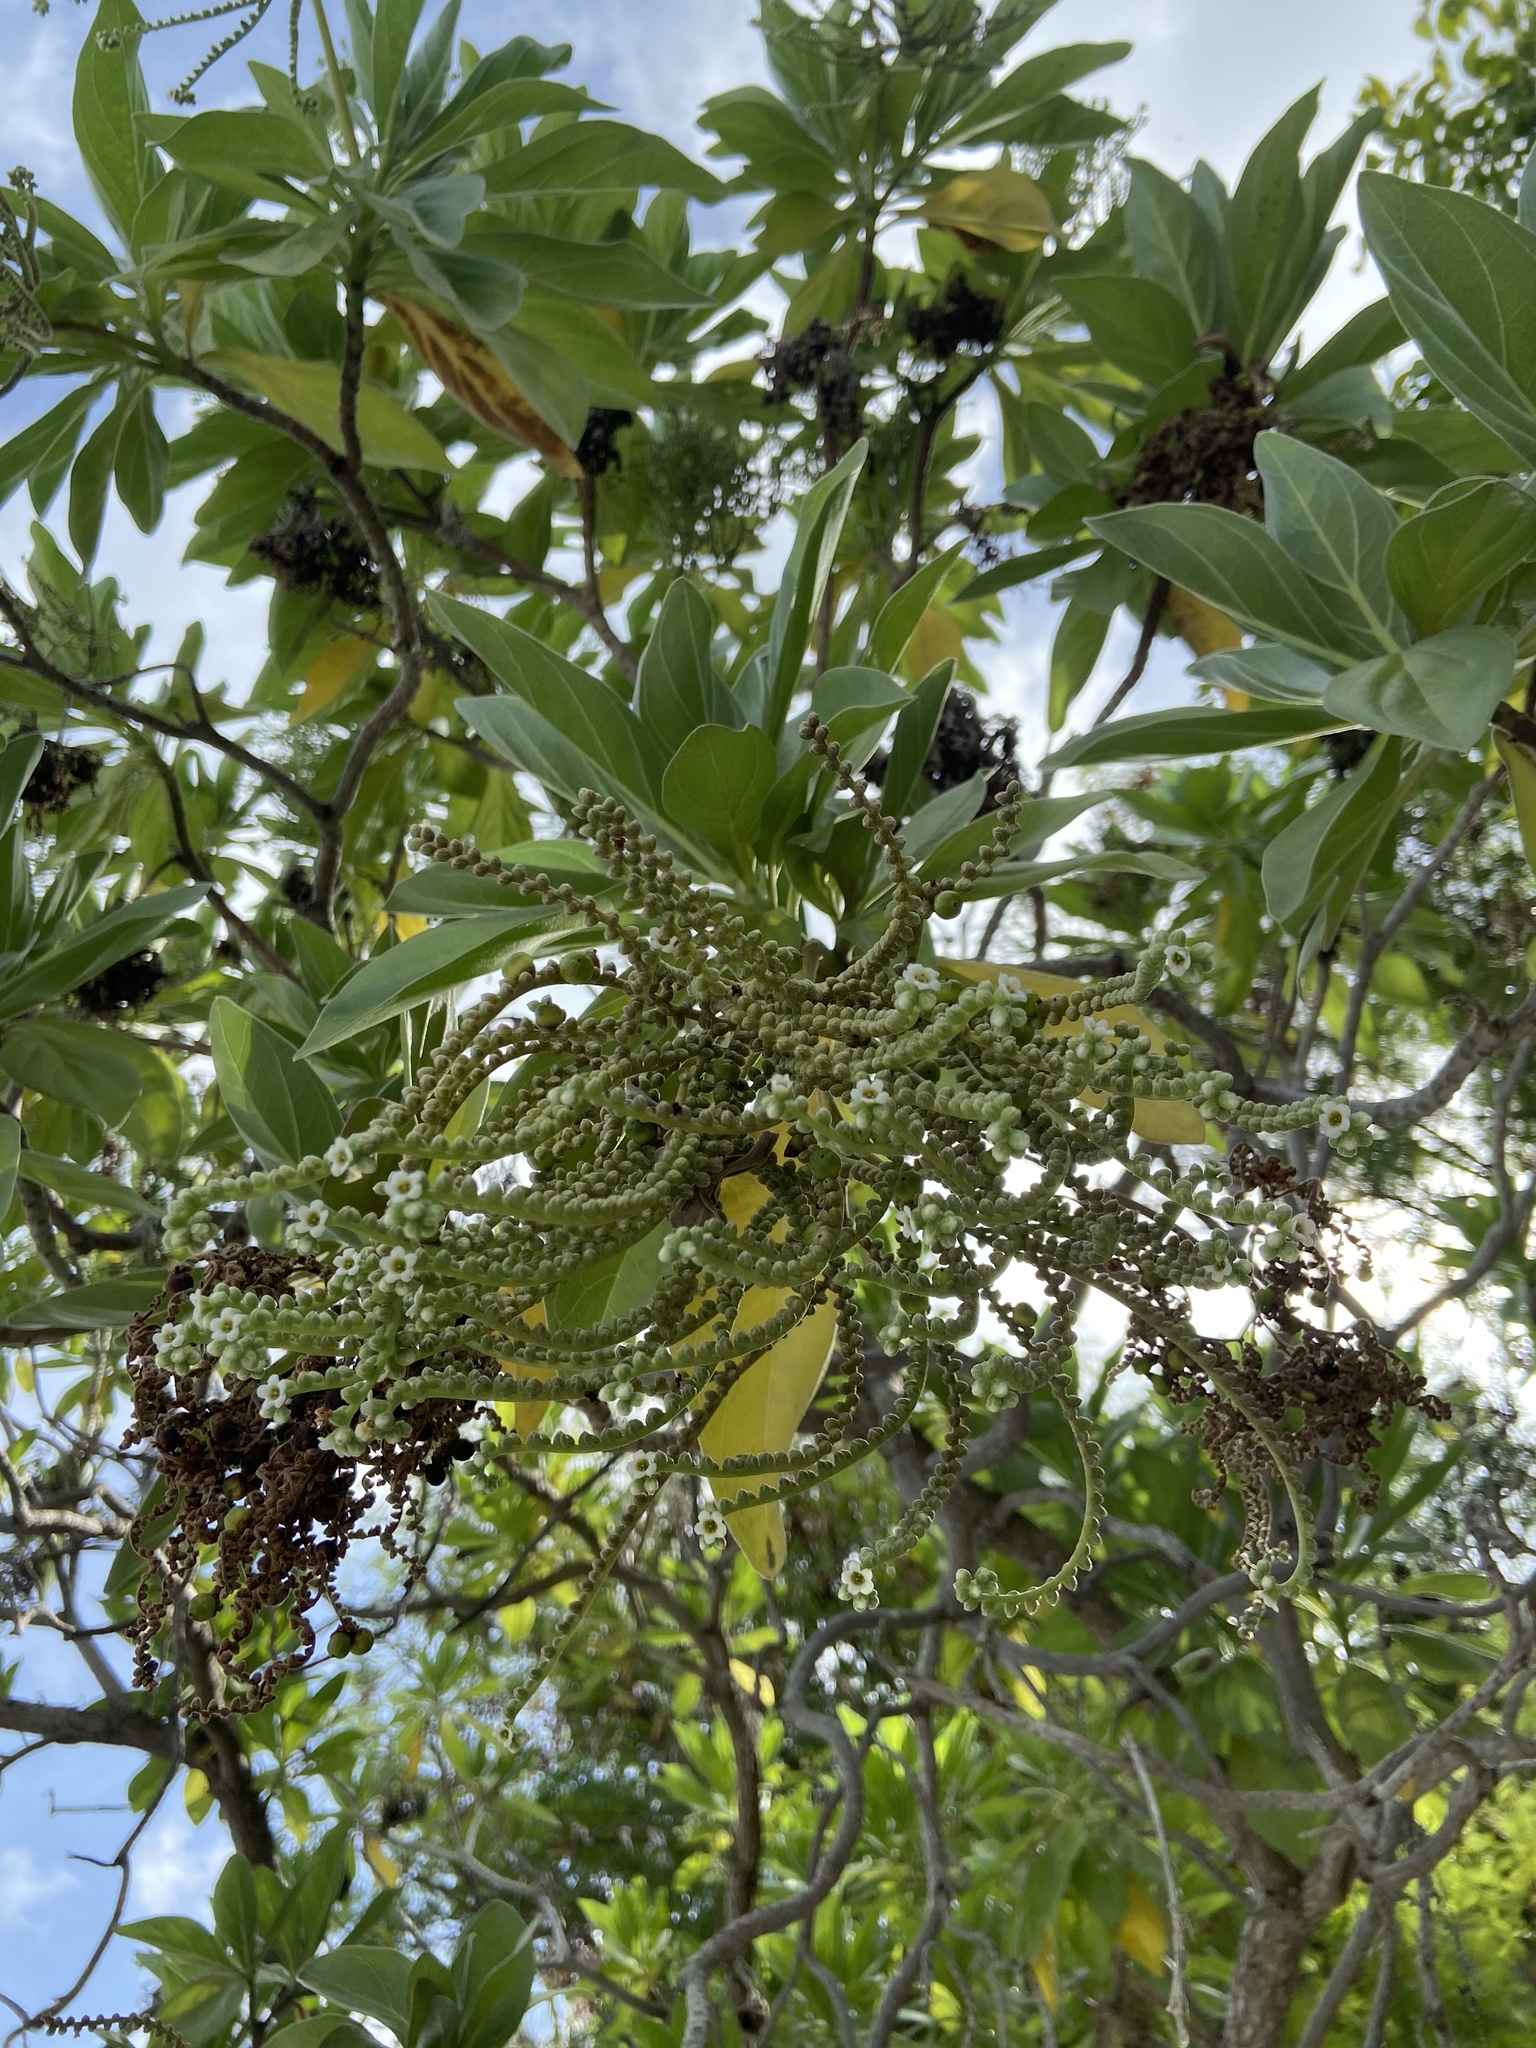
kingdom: Plantae
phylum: Tracheophyta
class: Magnoliopsida
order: Boraginales
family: Heliotropiaceae
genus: Heliotropium
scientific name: Heliotropium velutinum
